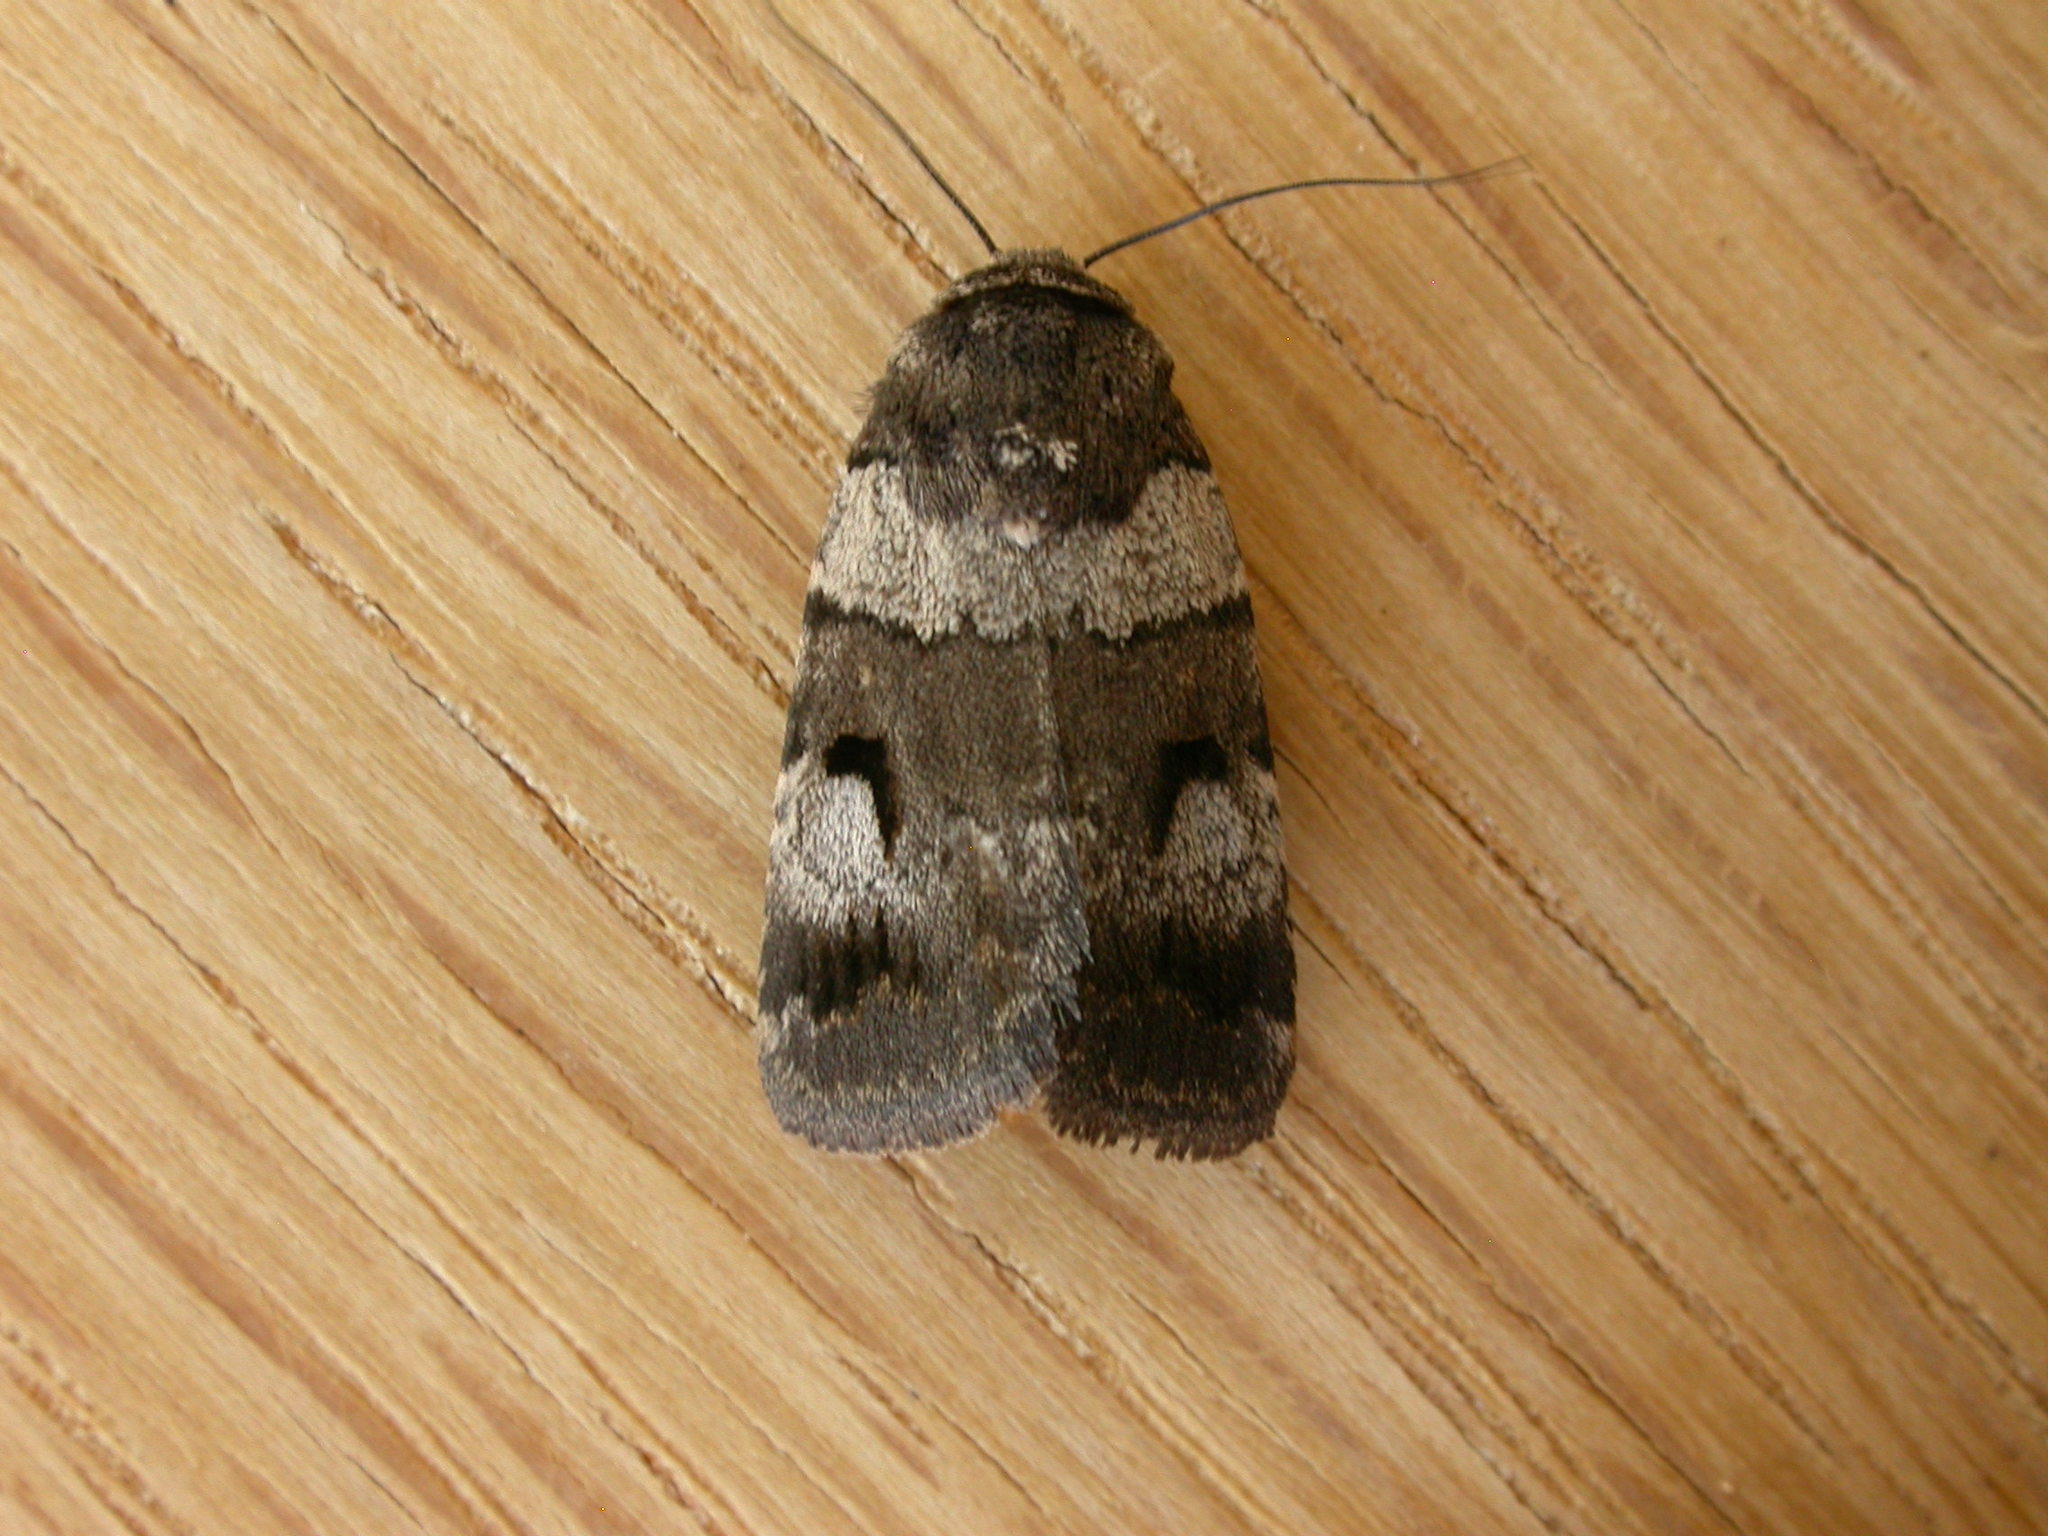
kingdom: Animalia
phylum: Arthropoda
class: Insecta
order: Lepidoptera
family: Noctuidae
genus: Thoracolopha
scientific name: Thoracolopha flexirena
